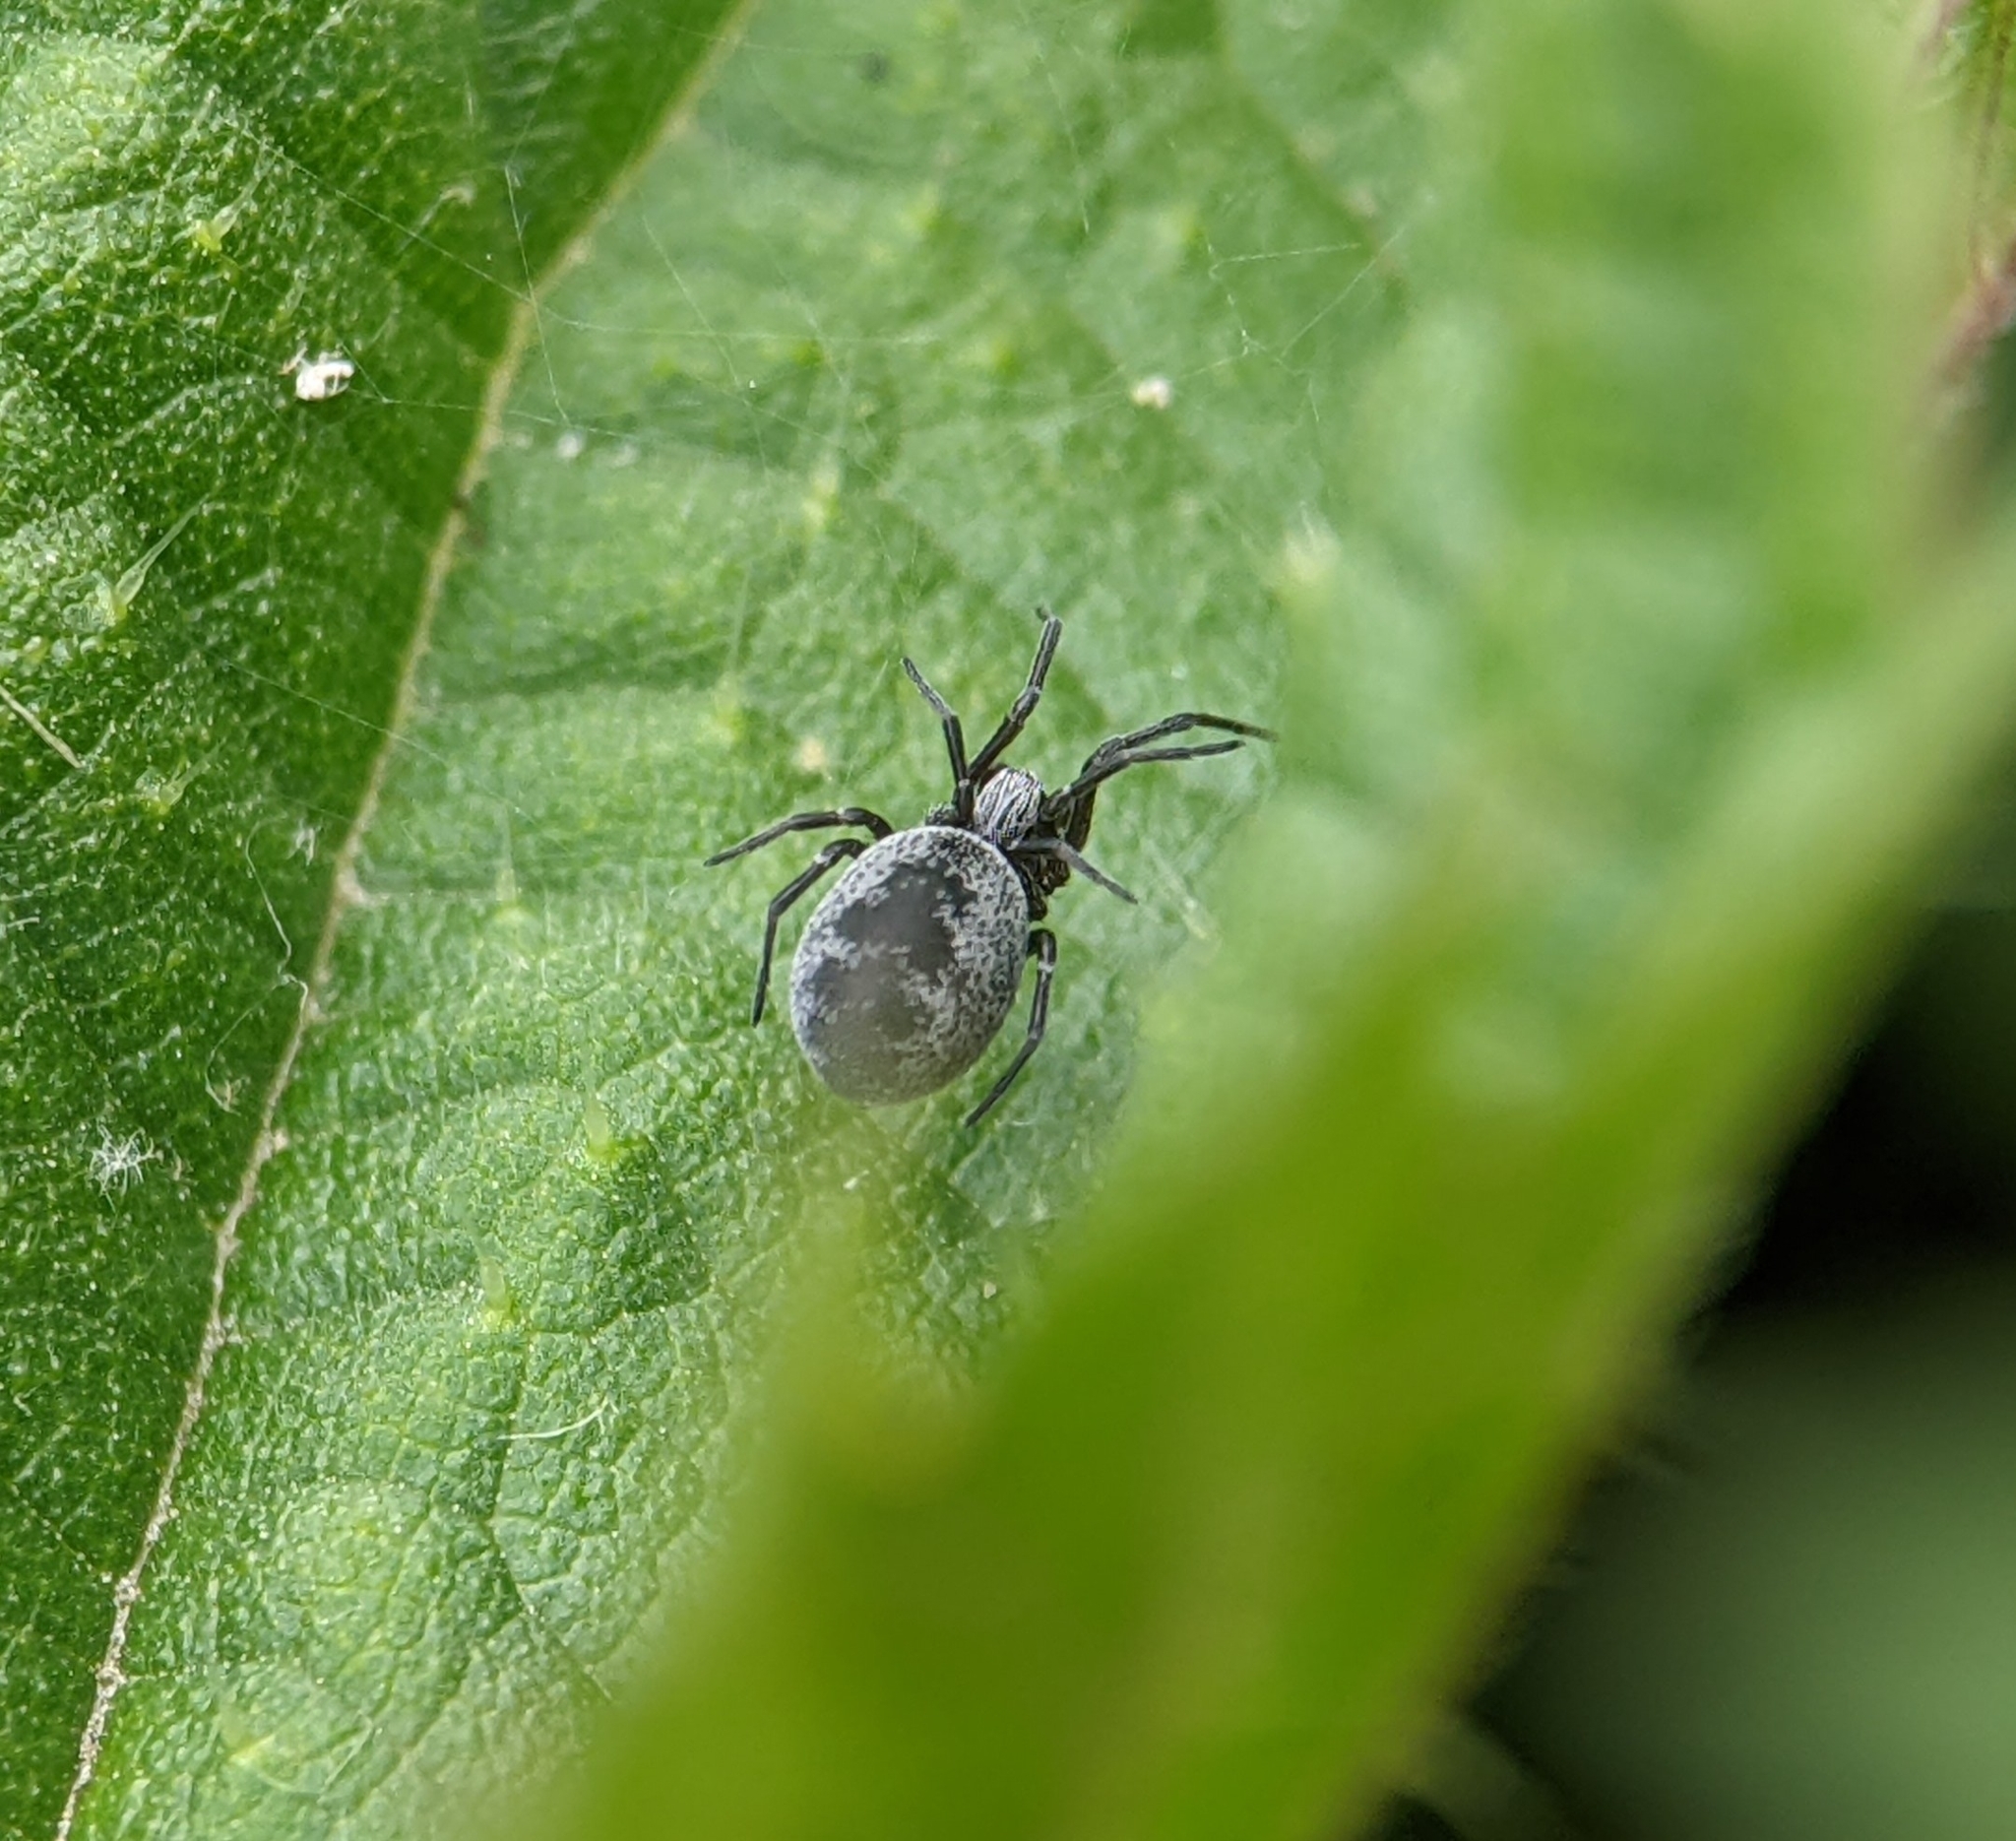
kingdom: Animalia
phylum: Arthropoda
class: Arachnida
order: Araneae
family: Dictynidae
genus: Brigittea
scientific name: Brigittea latens
